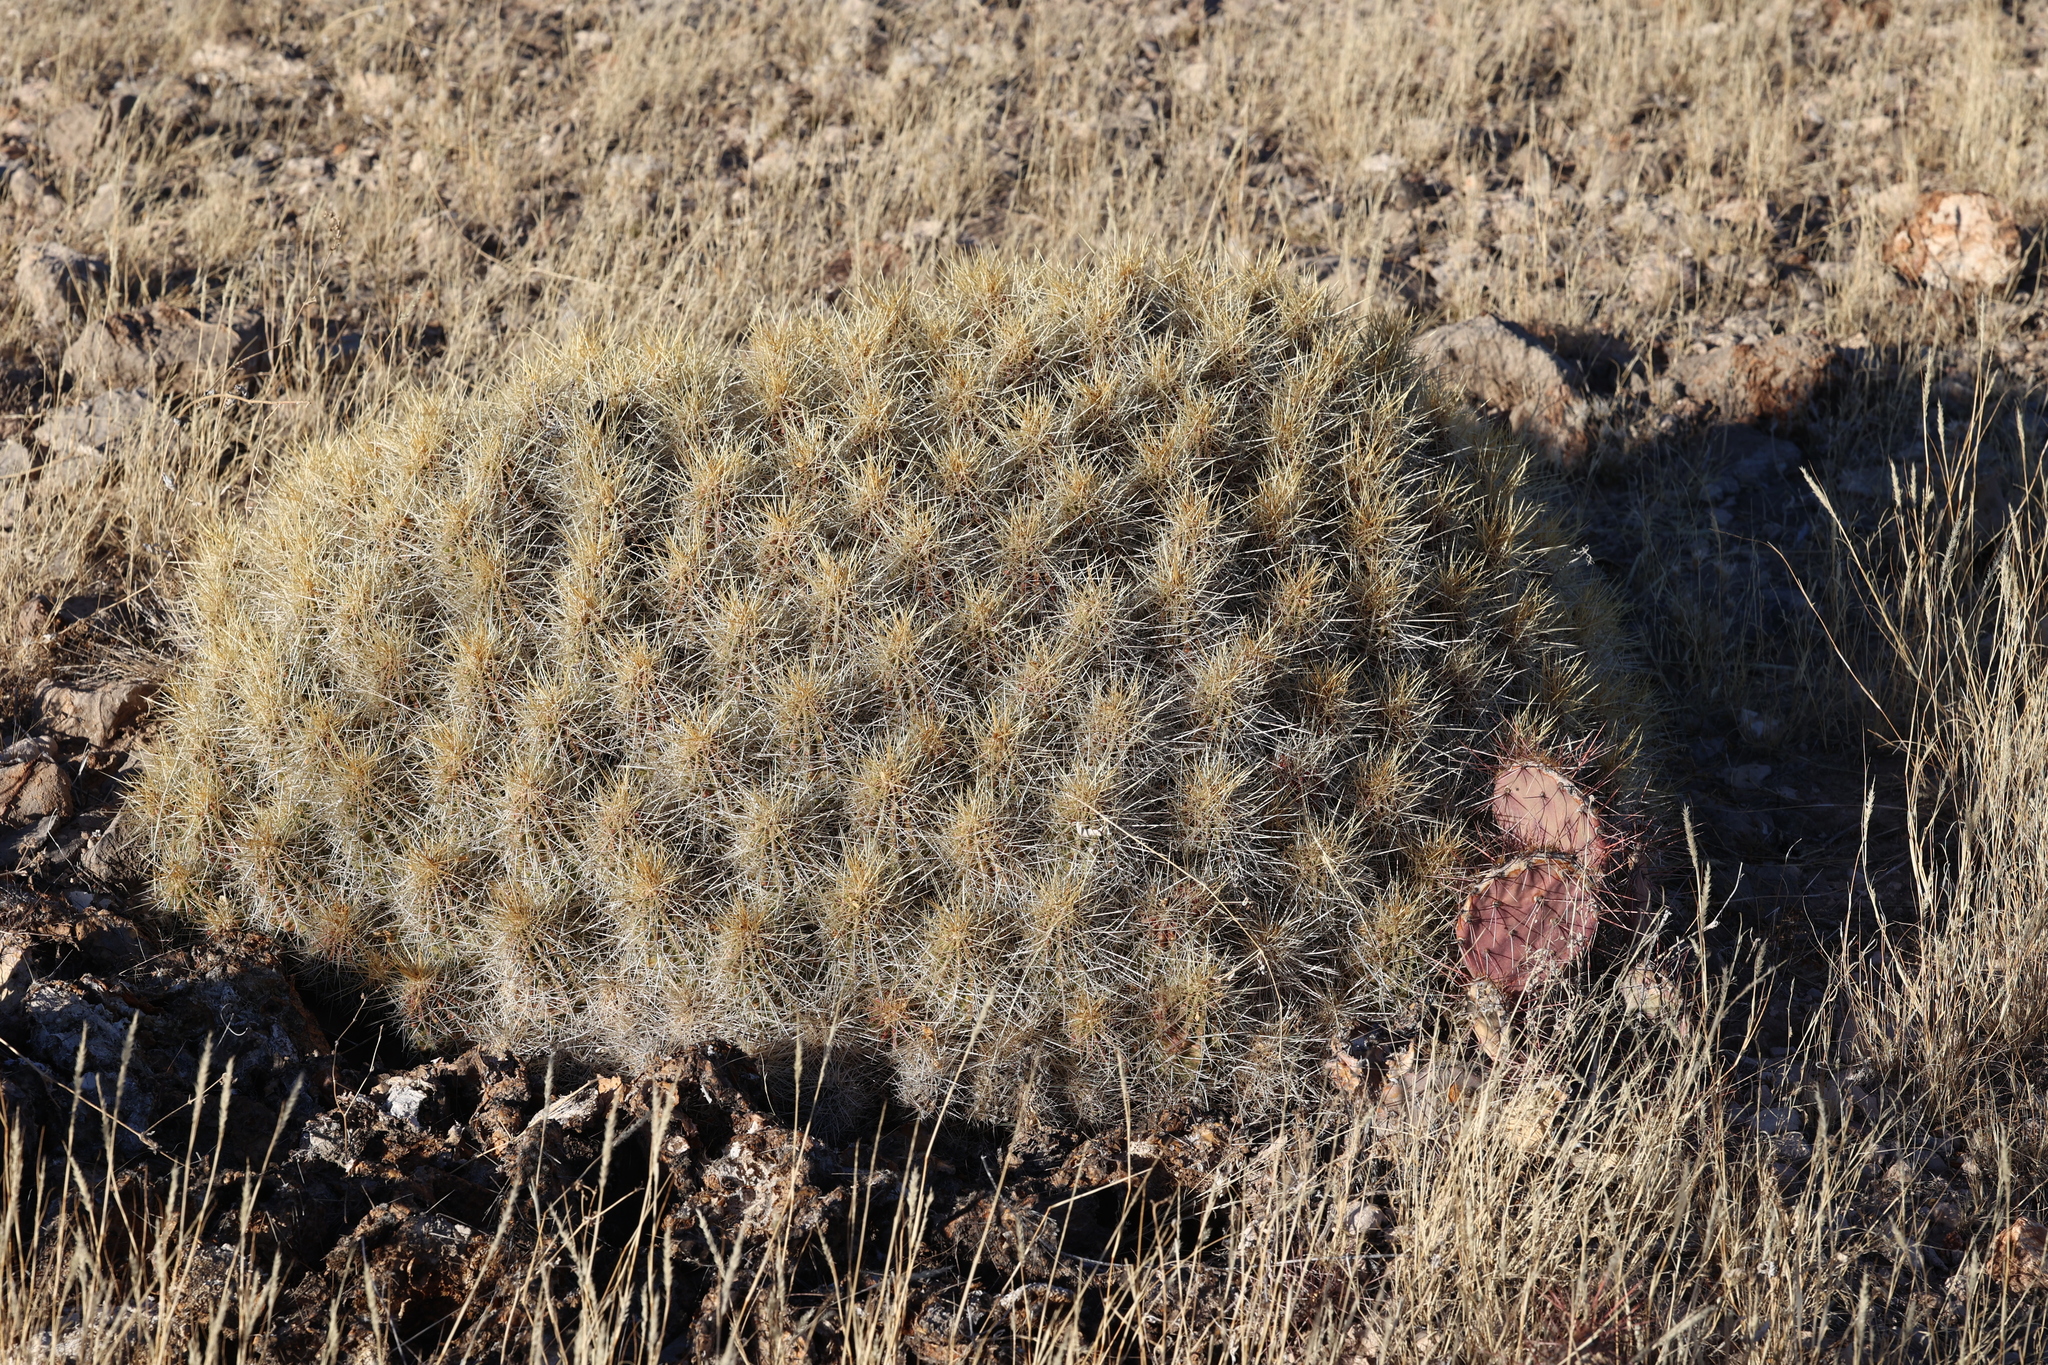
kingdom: Plantae
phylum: Tracheophyta
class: Magnoliopsida
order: Caryophyllales
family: Cactaceae
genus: Echinocereus
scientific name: Echinocereus stramineus
